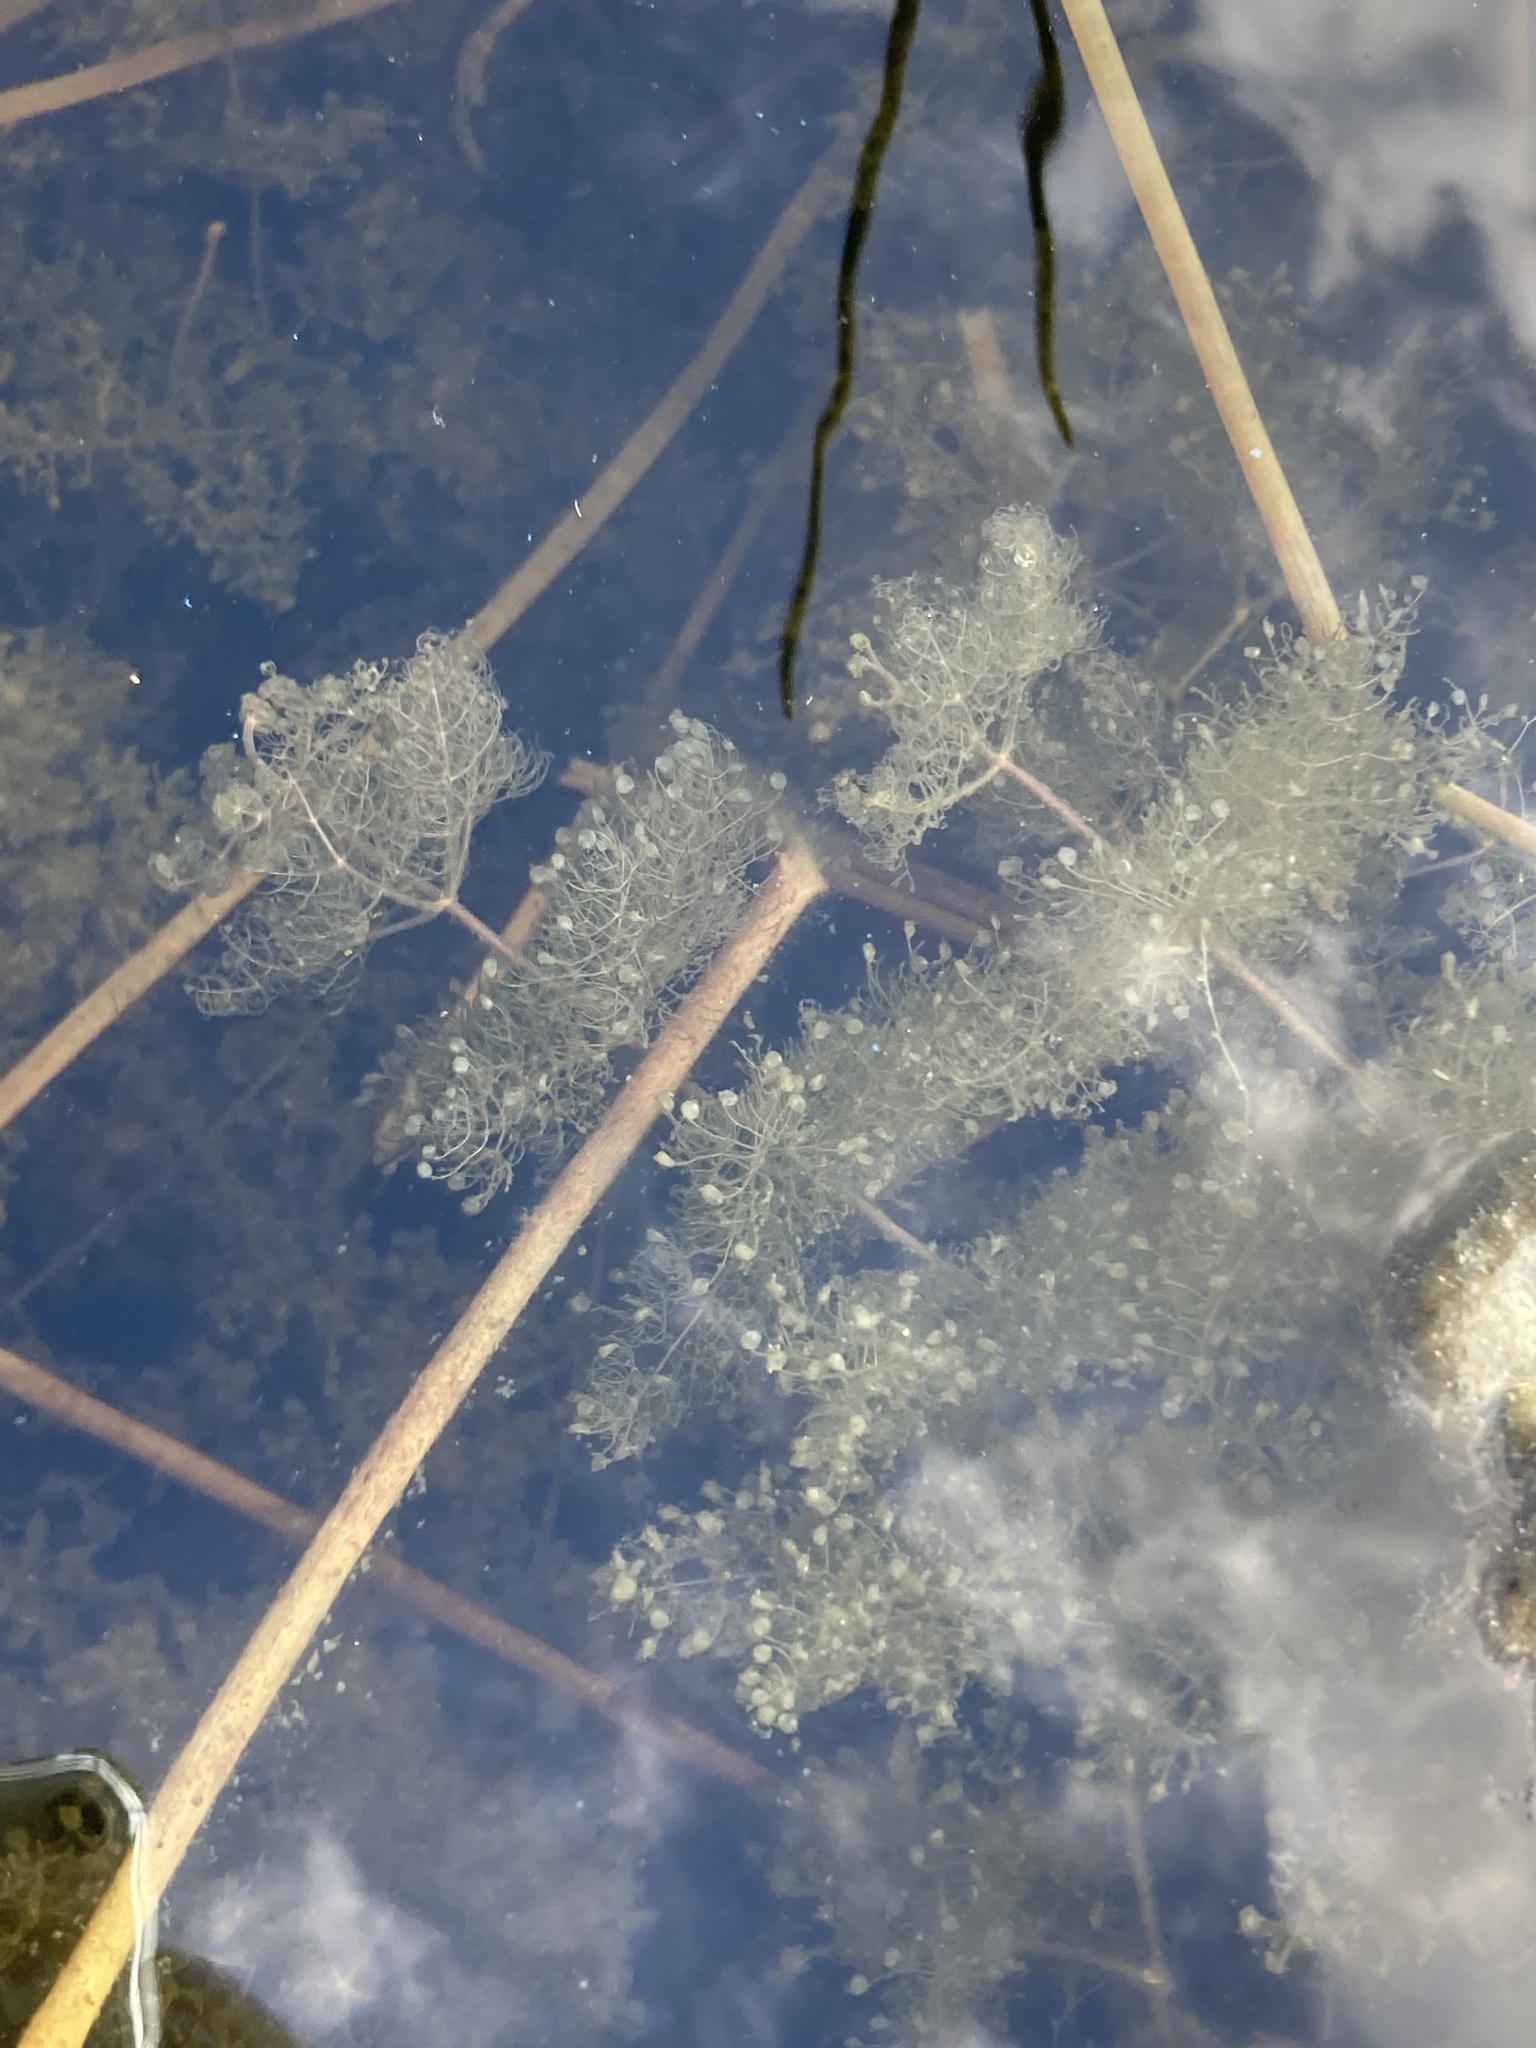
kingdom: Plantae
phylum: Tracheophyta
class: Magnoliopsida
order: Lamiales
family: Lentibulariaceae
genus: Utricularia
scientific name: Utricularia purpurea
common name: Eastern purple bladderwort
